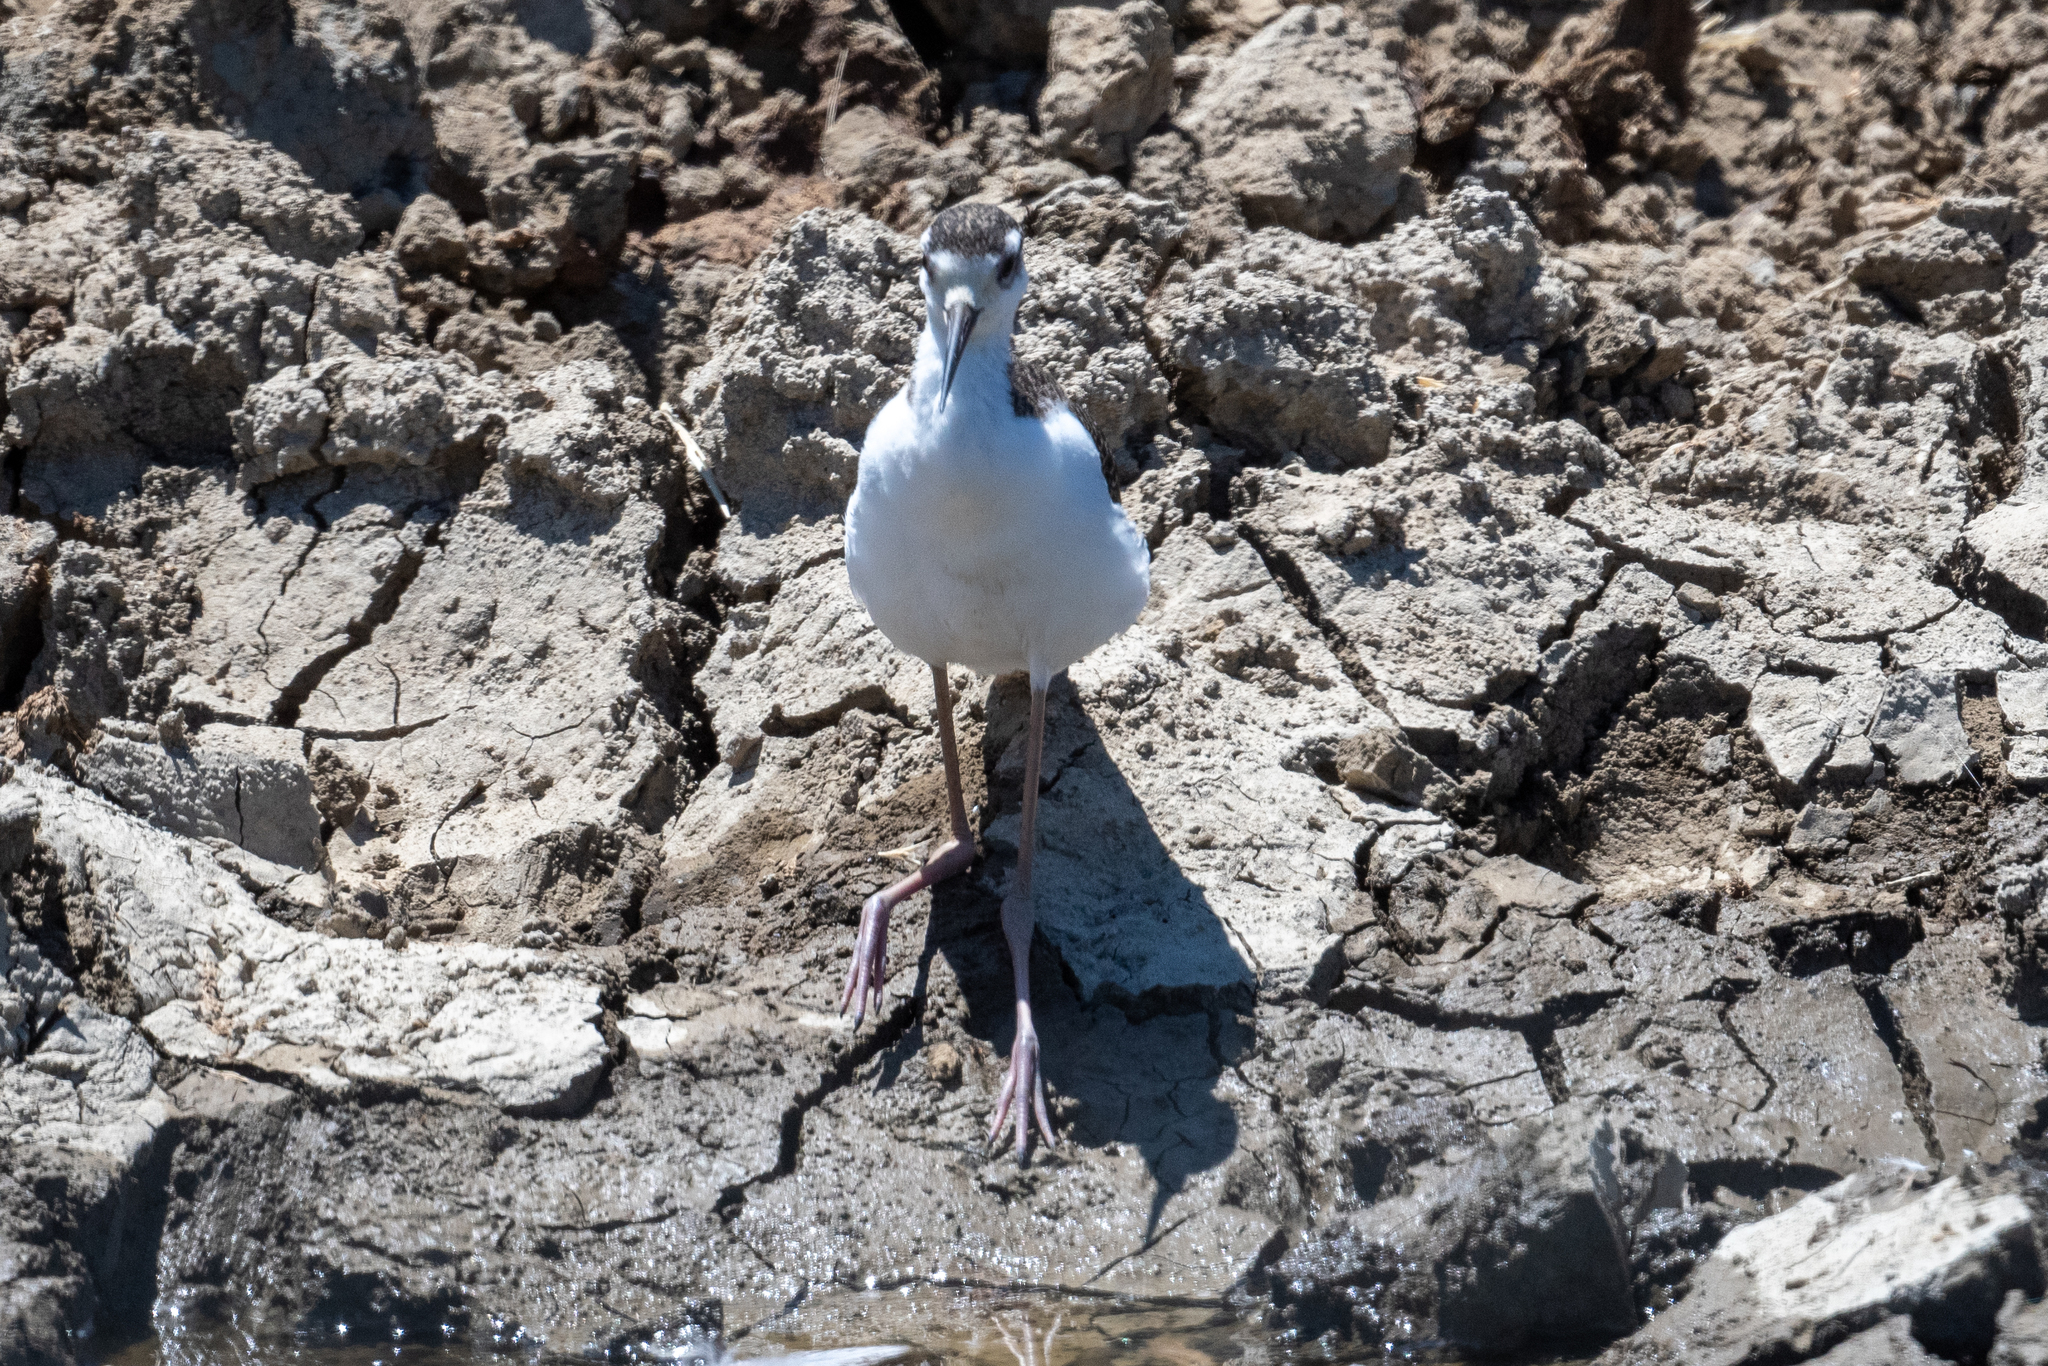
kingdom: Animalia
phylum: Chordata
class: Aves
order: Charadriiformes
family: Recurvirostridae
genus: Himantopus
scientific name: Himantopus mexicanus
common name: Black-necked stilt
